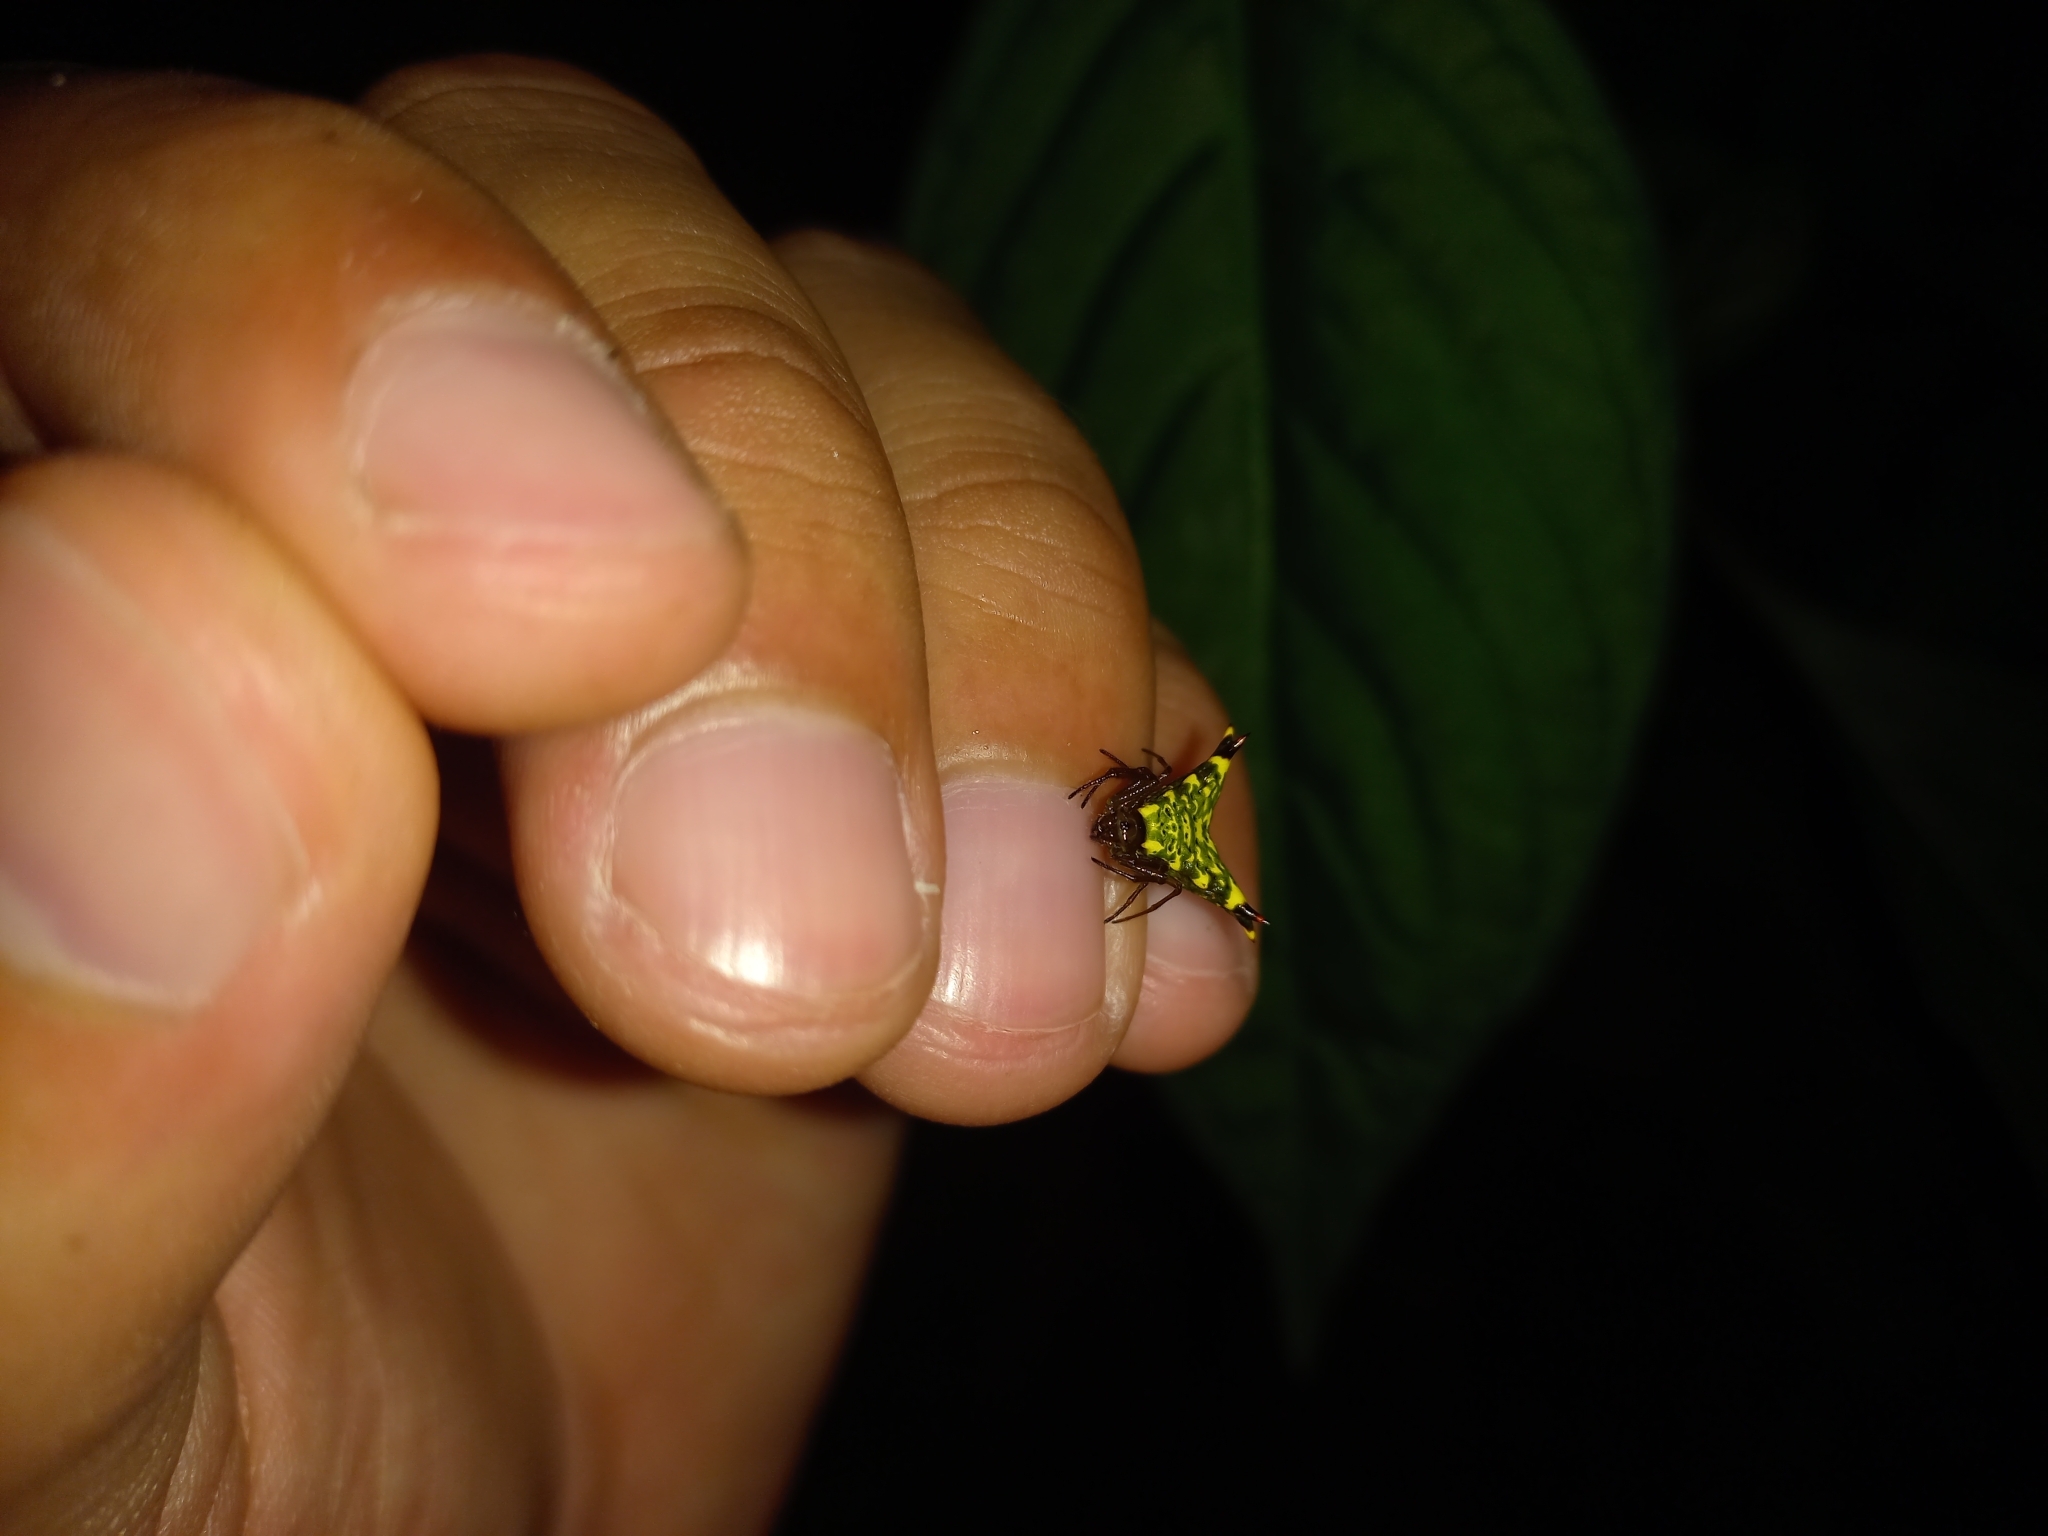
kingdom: Animalia
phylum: Arthropoda
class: Arachnida
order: Araneae
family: Araneidae
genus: Micrathena
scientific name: Micrathena lucasi
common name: Orb weavers
